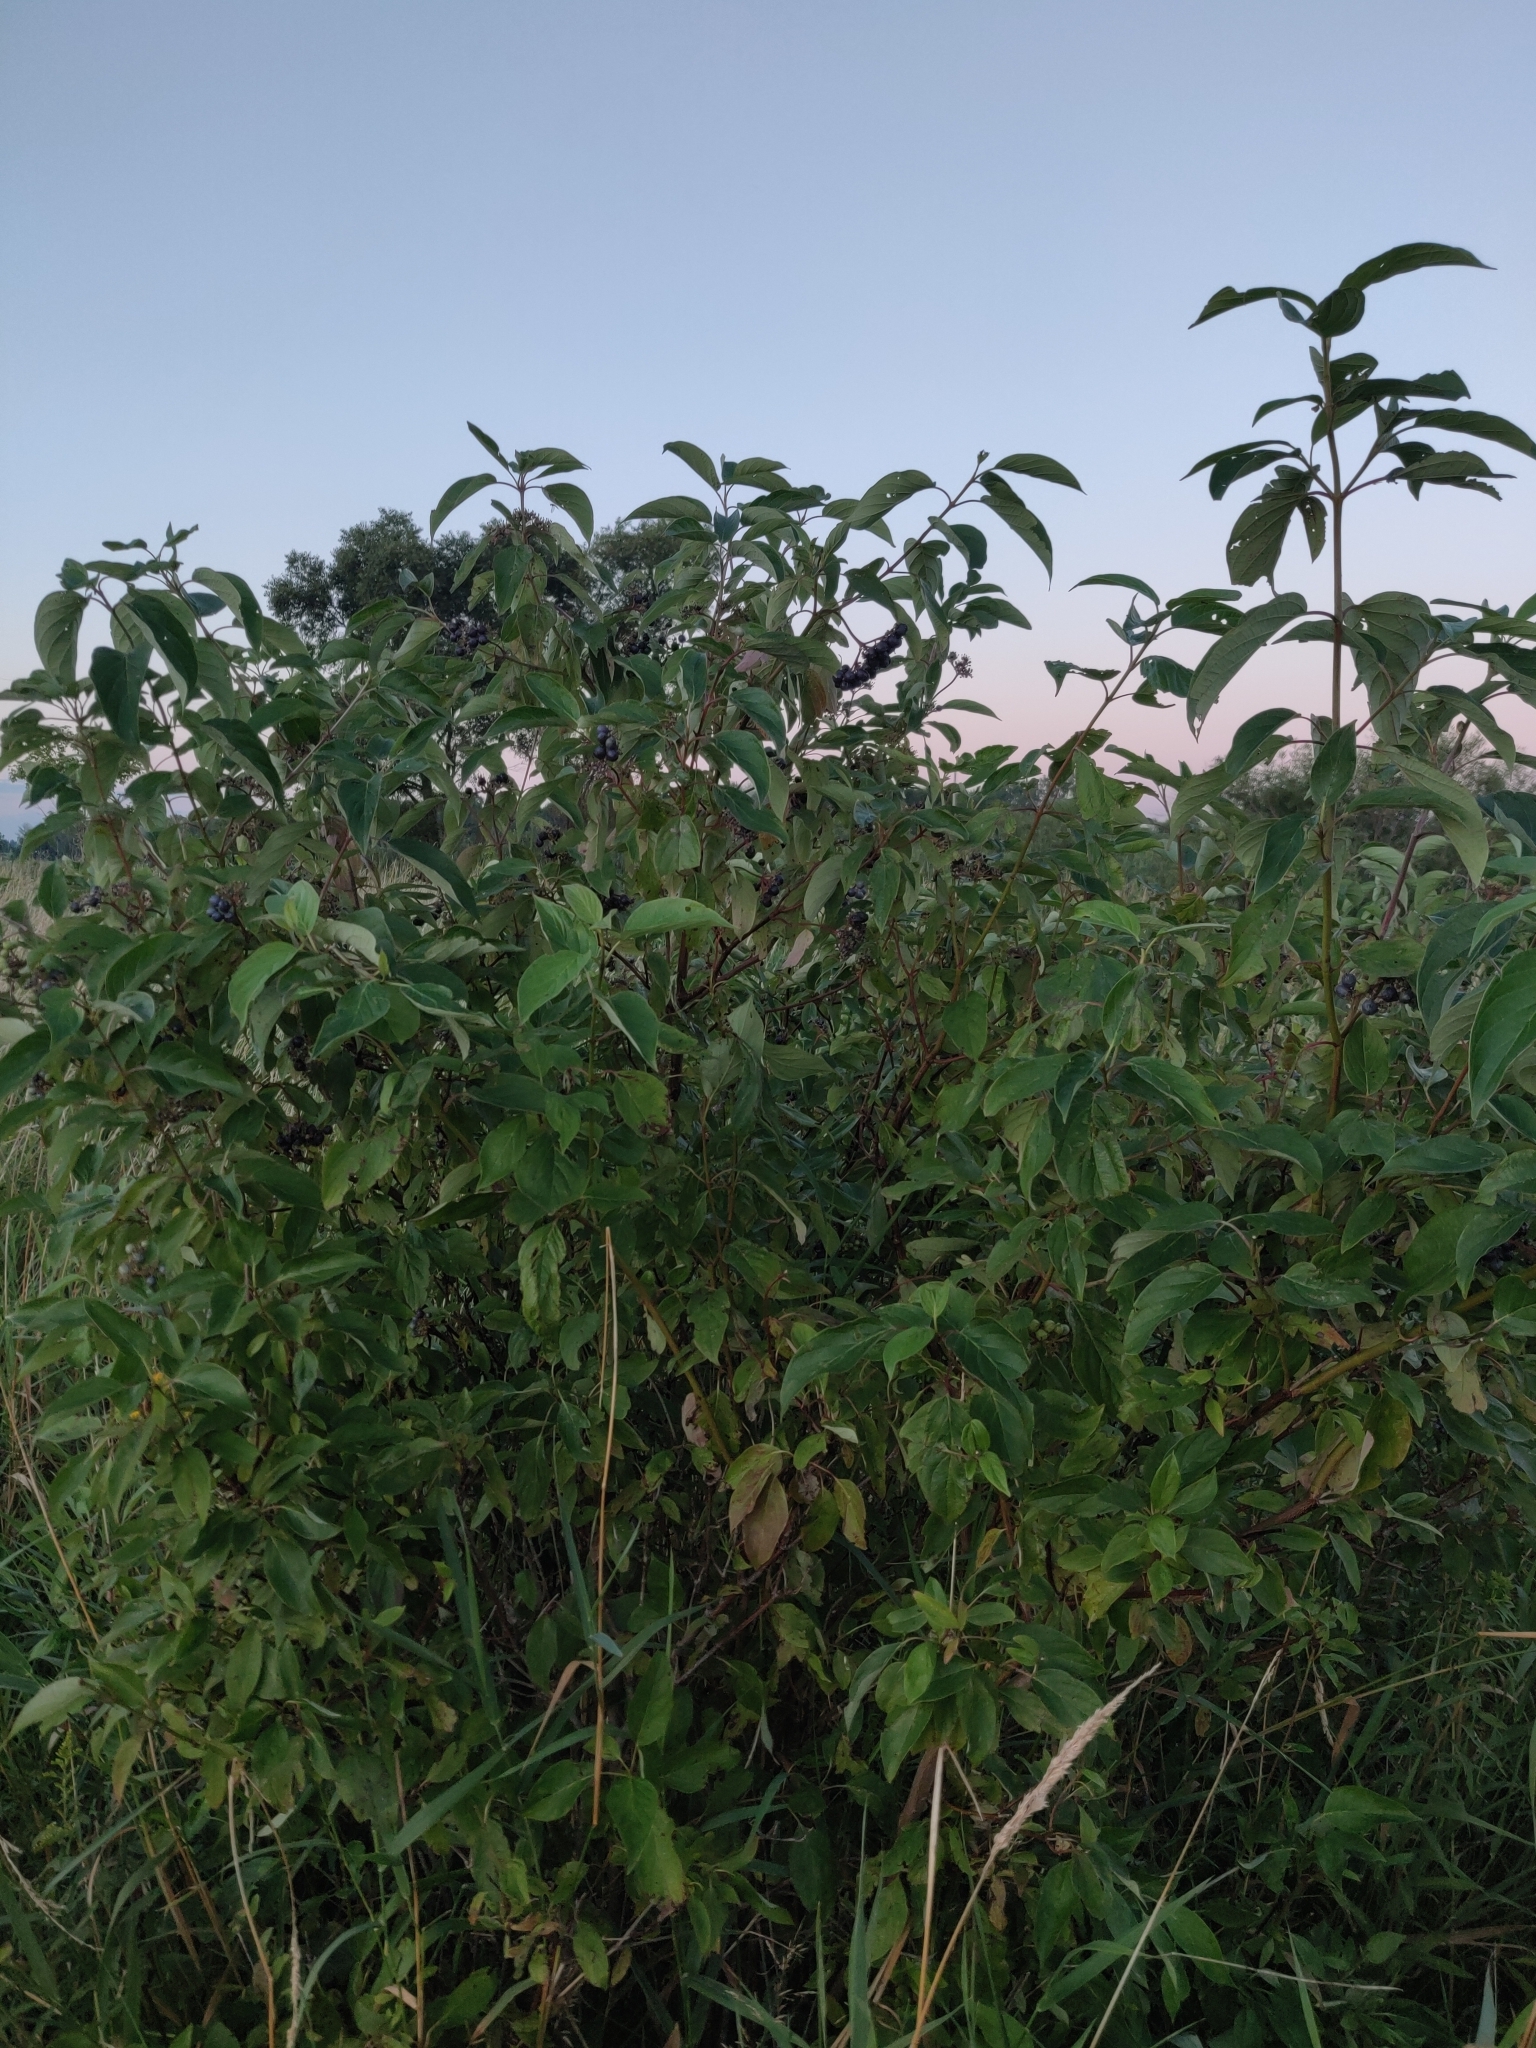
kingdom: Plantae
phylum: Tracheophyta
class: Magnoliopsida
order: Cornales
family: Cornaceae
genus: Cornus
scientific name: Cornus amomum
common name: Silky dogwood
